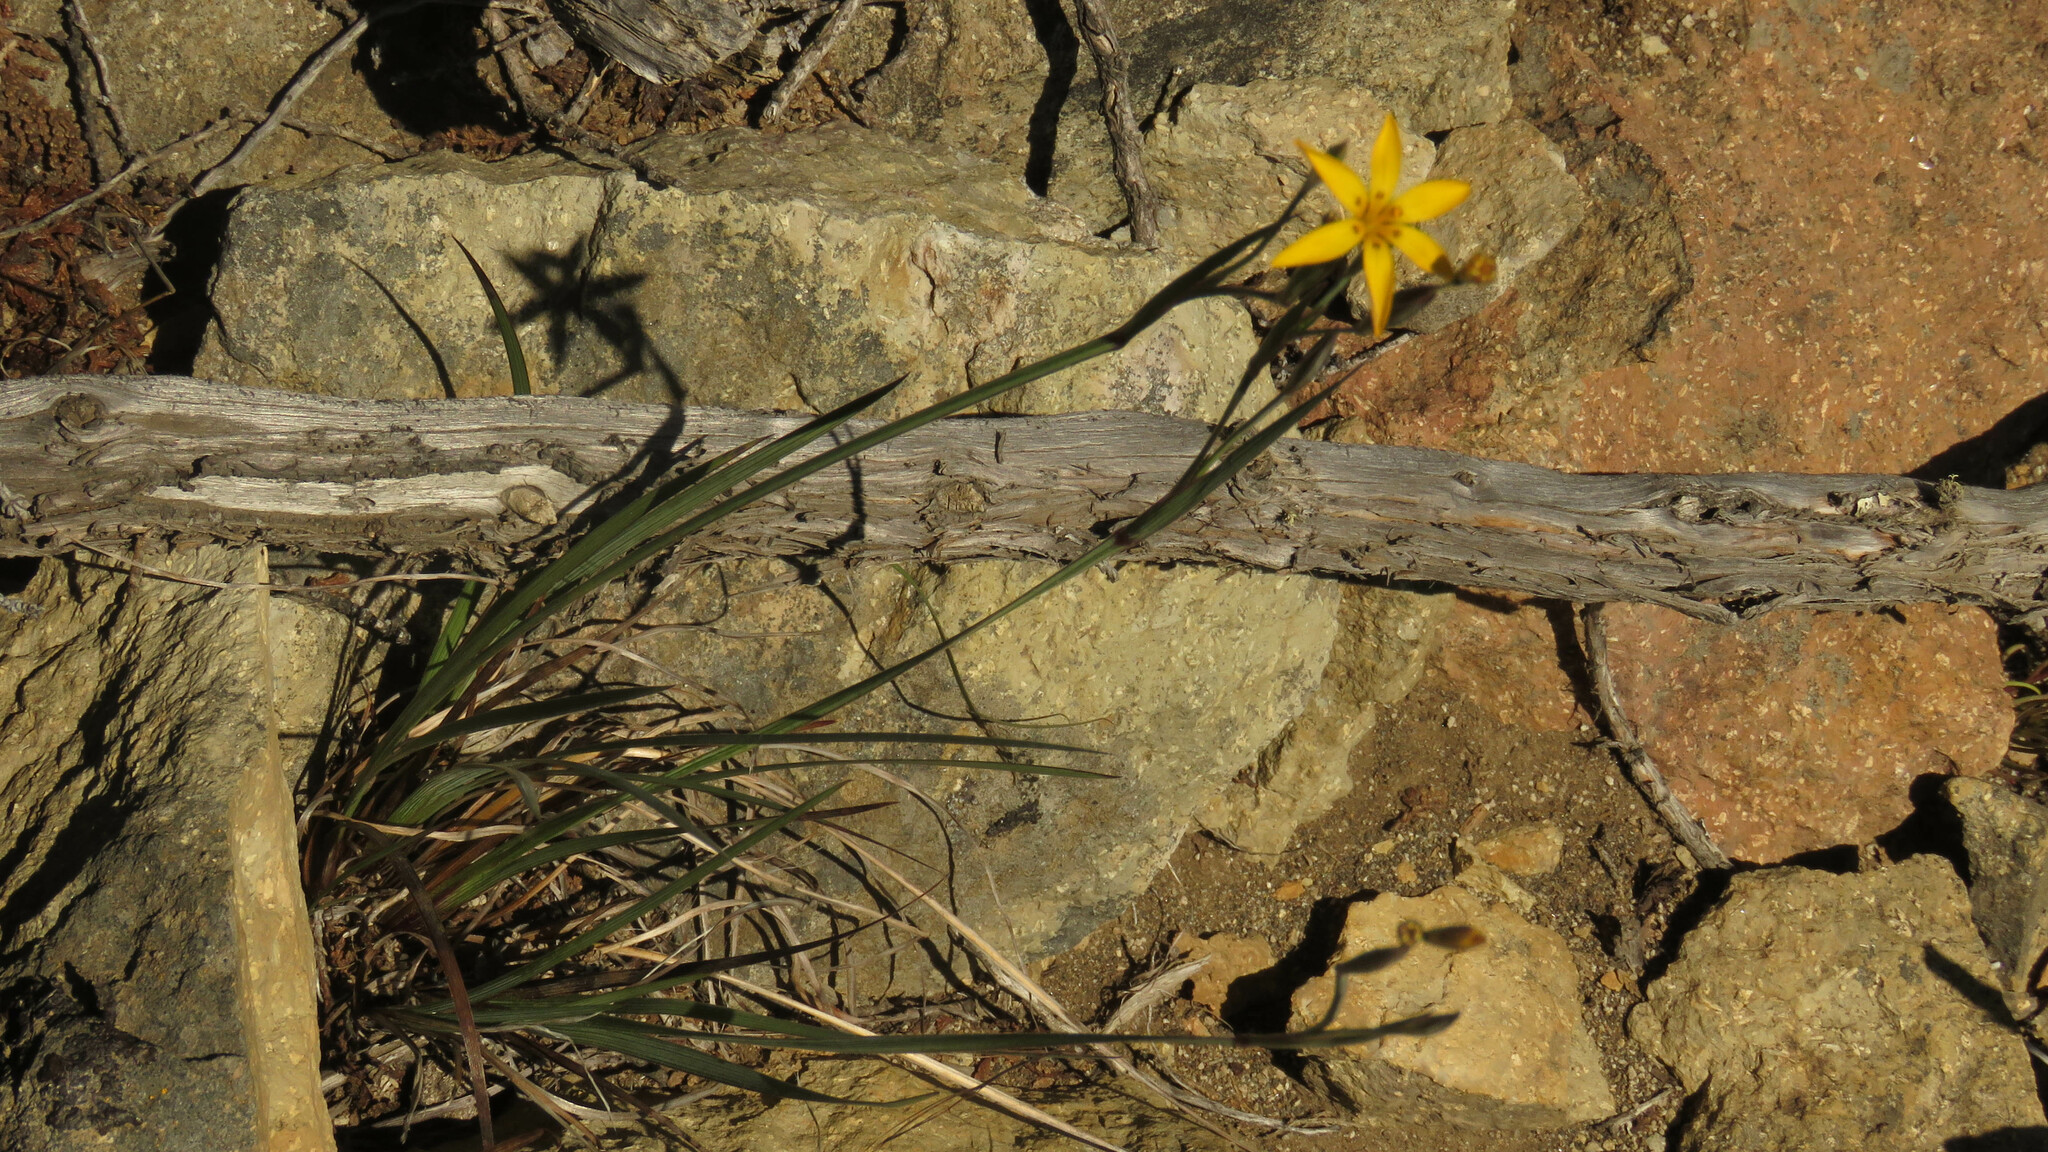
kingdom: Plantae
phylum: Tracheophyta
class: Liliopsida
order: Asparagales
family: Iridaceae
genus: Sisyrinchium
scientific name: Sisyrinchium patagonicum
